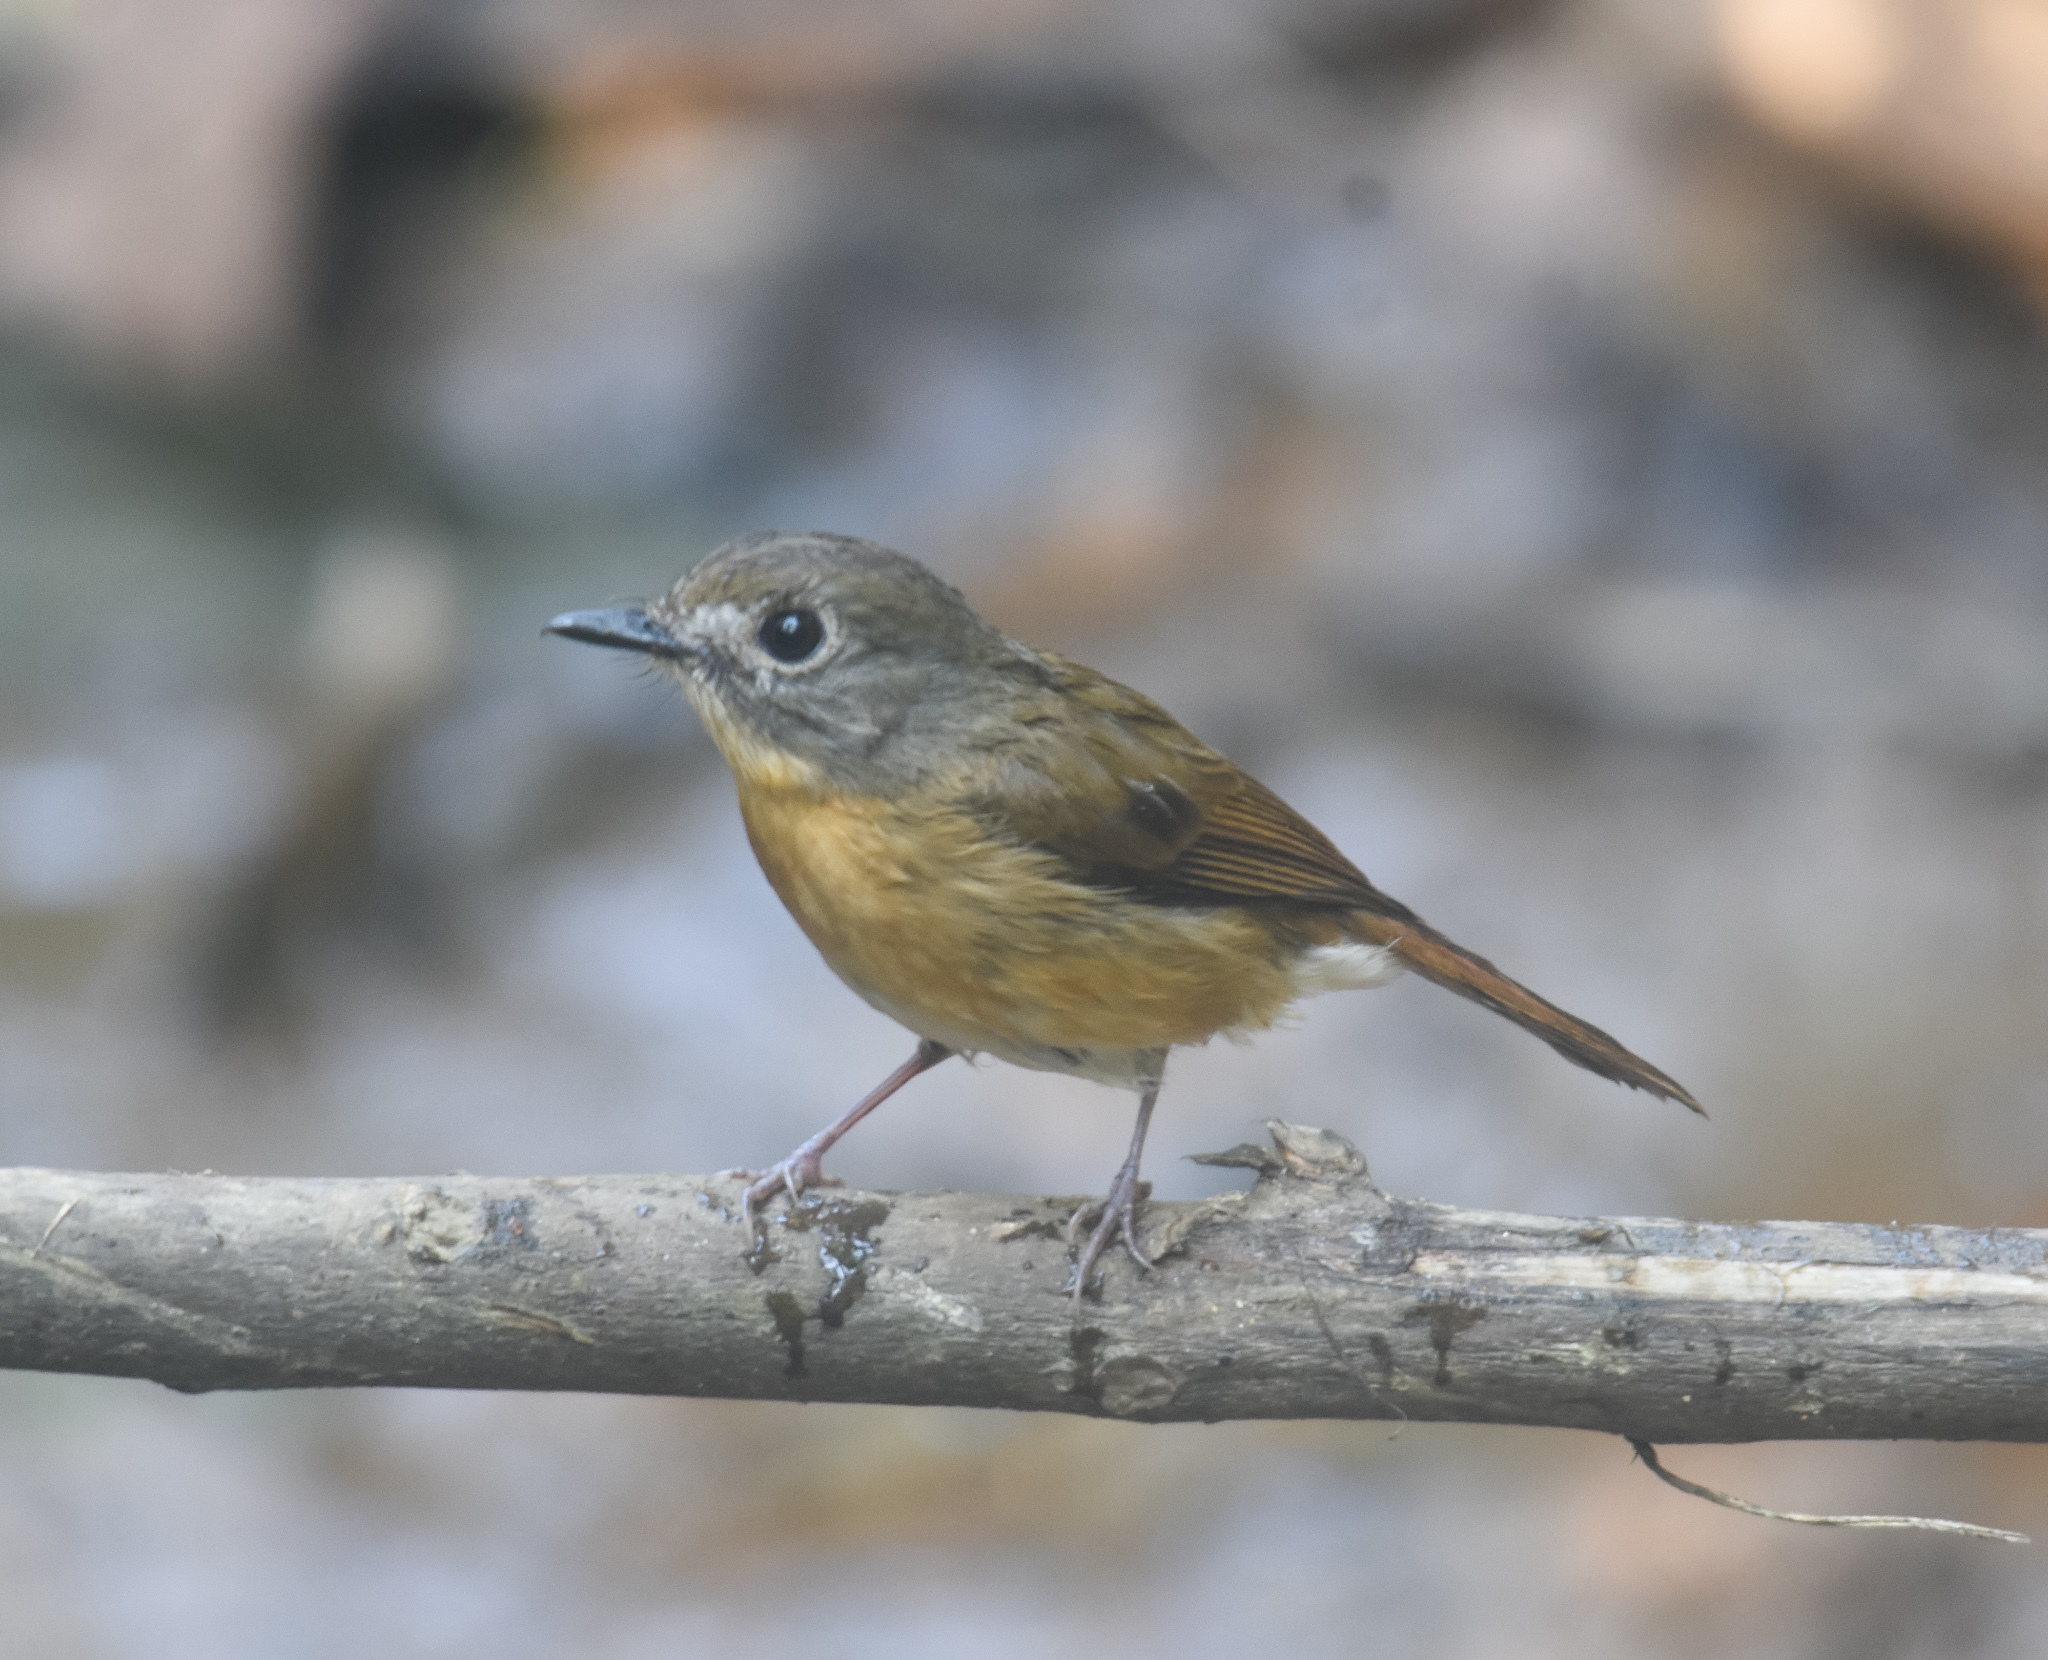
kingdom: Animalia
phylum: Chordata
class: Aves
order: Passeriformes
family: Muscicapidae
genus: Cyornis
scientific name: Cyornis poliogenys
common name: Pale-chinned blue flycatcher
